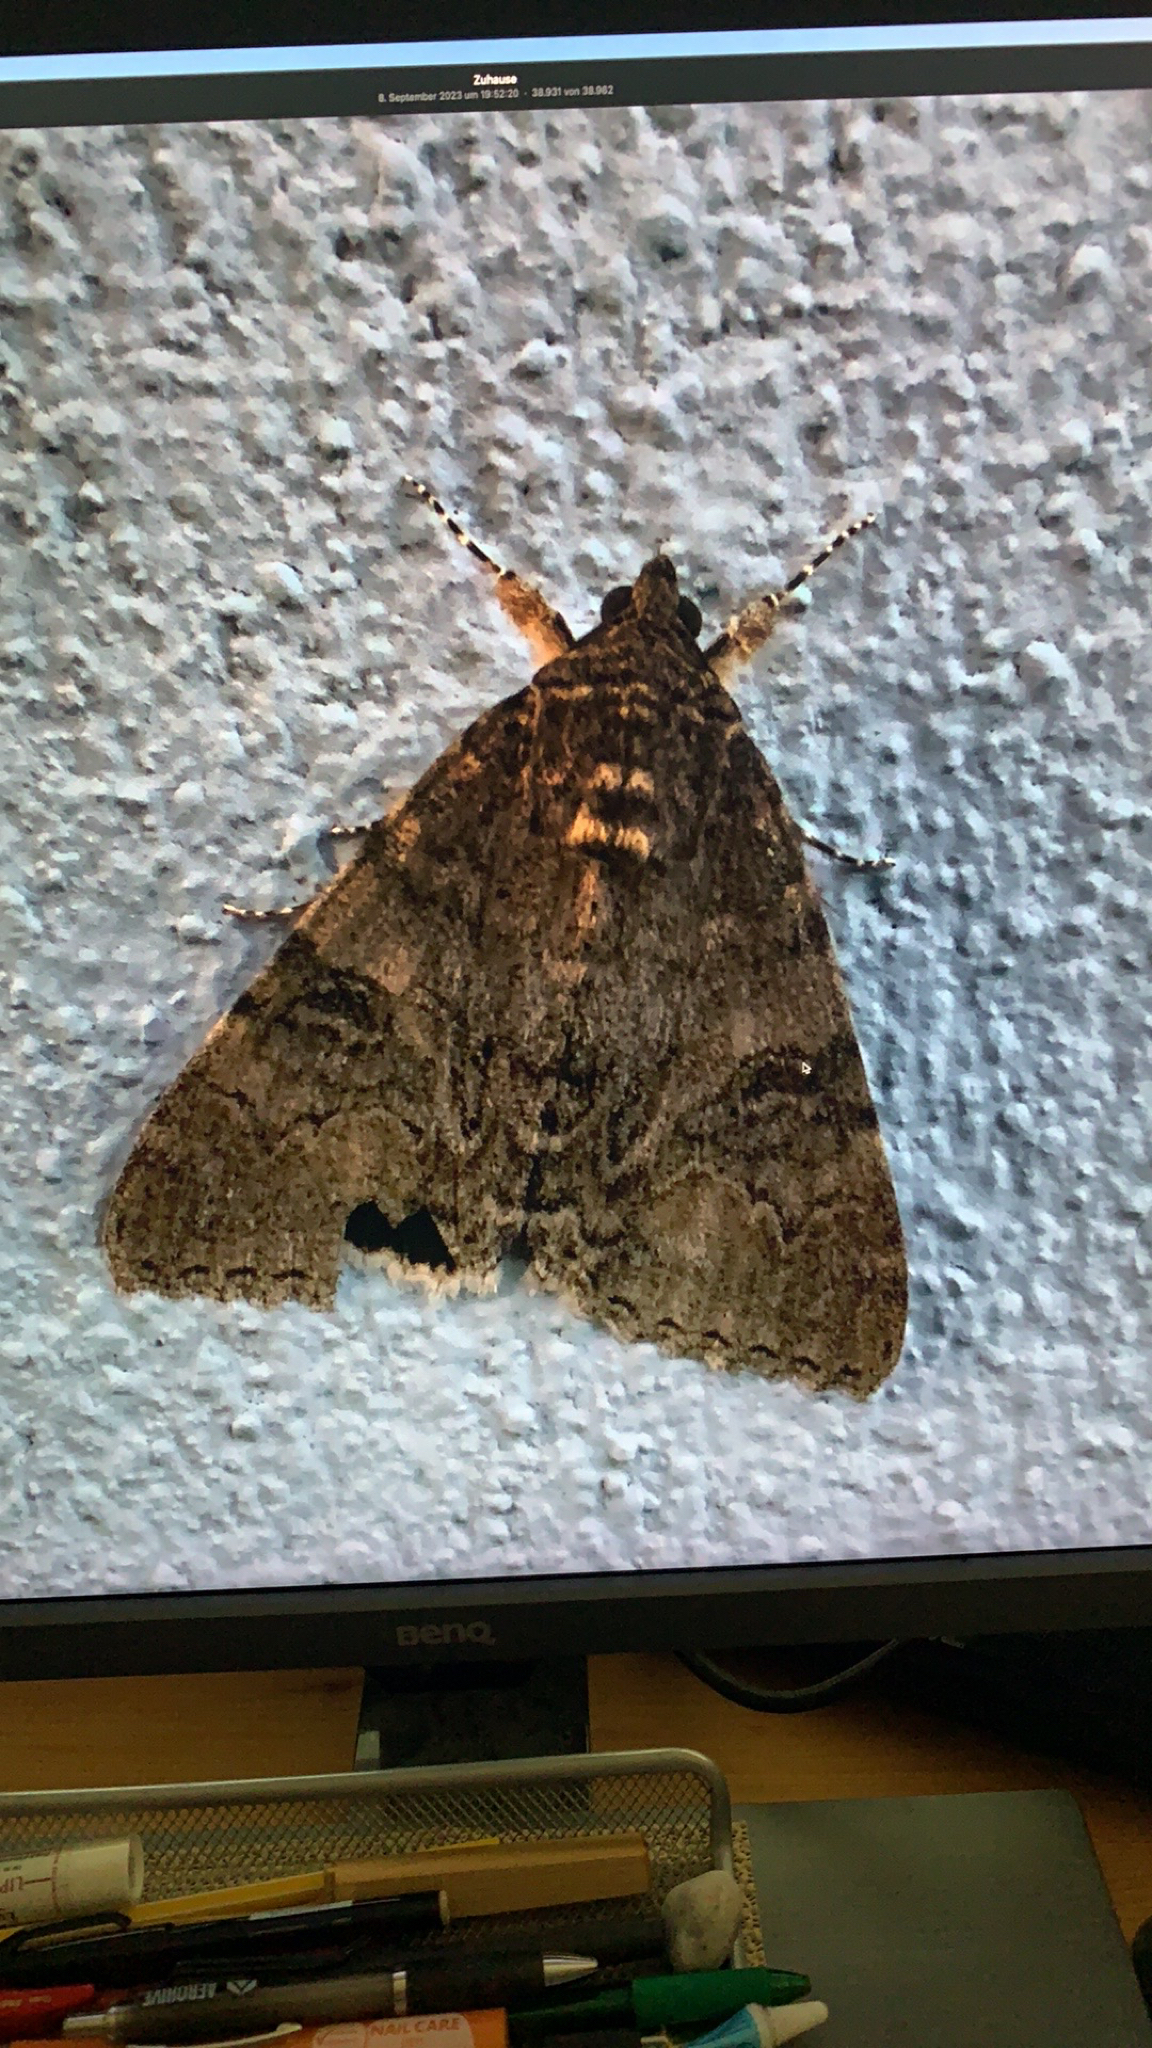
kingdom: Animalia
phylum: Arthropoda
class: Insecta
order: Lepidoptera
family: Erebidae
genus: Catocala
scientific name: Catocala nupta
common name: Red underwing
